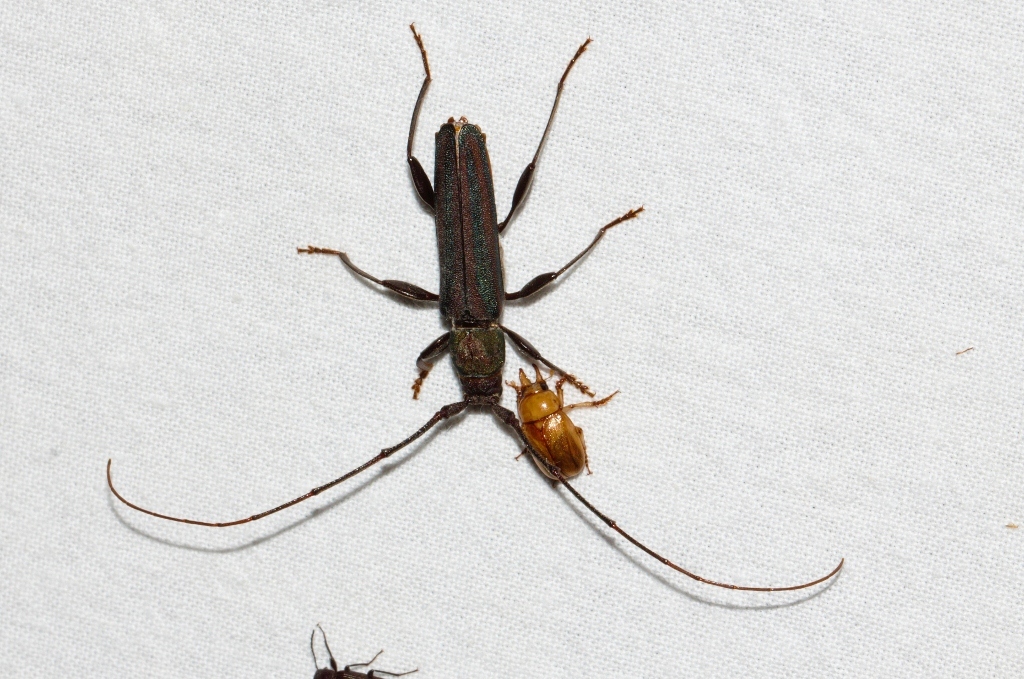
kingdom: Animalia
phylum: Arthropoda
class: Insecta
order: Coleoptera
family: Cerambycidae
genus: Xystrocera
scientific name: Xystrocera erosa
